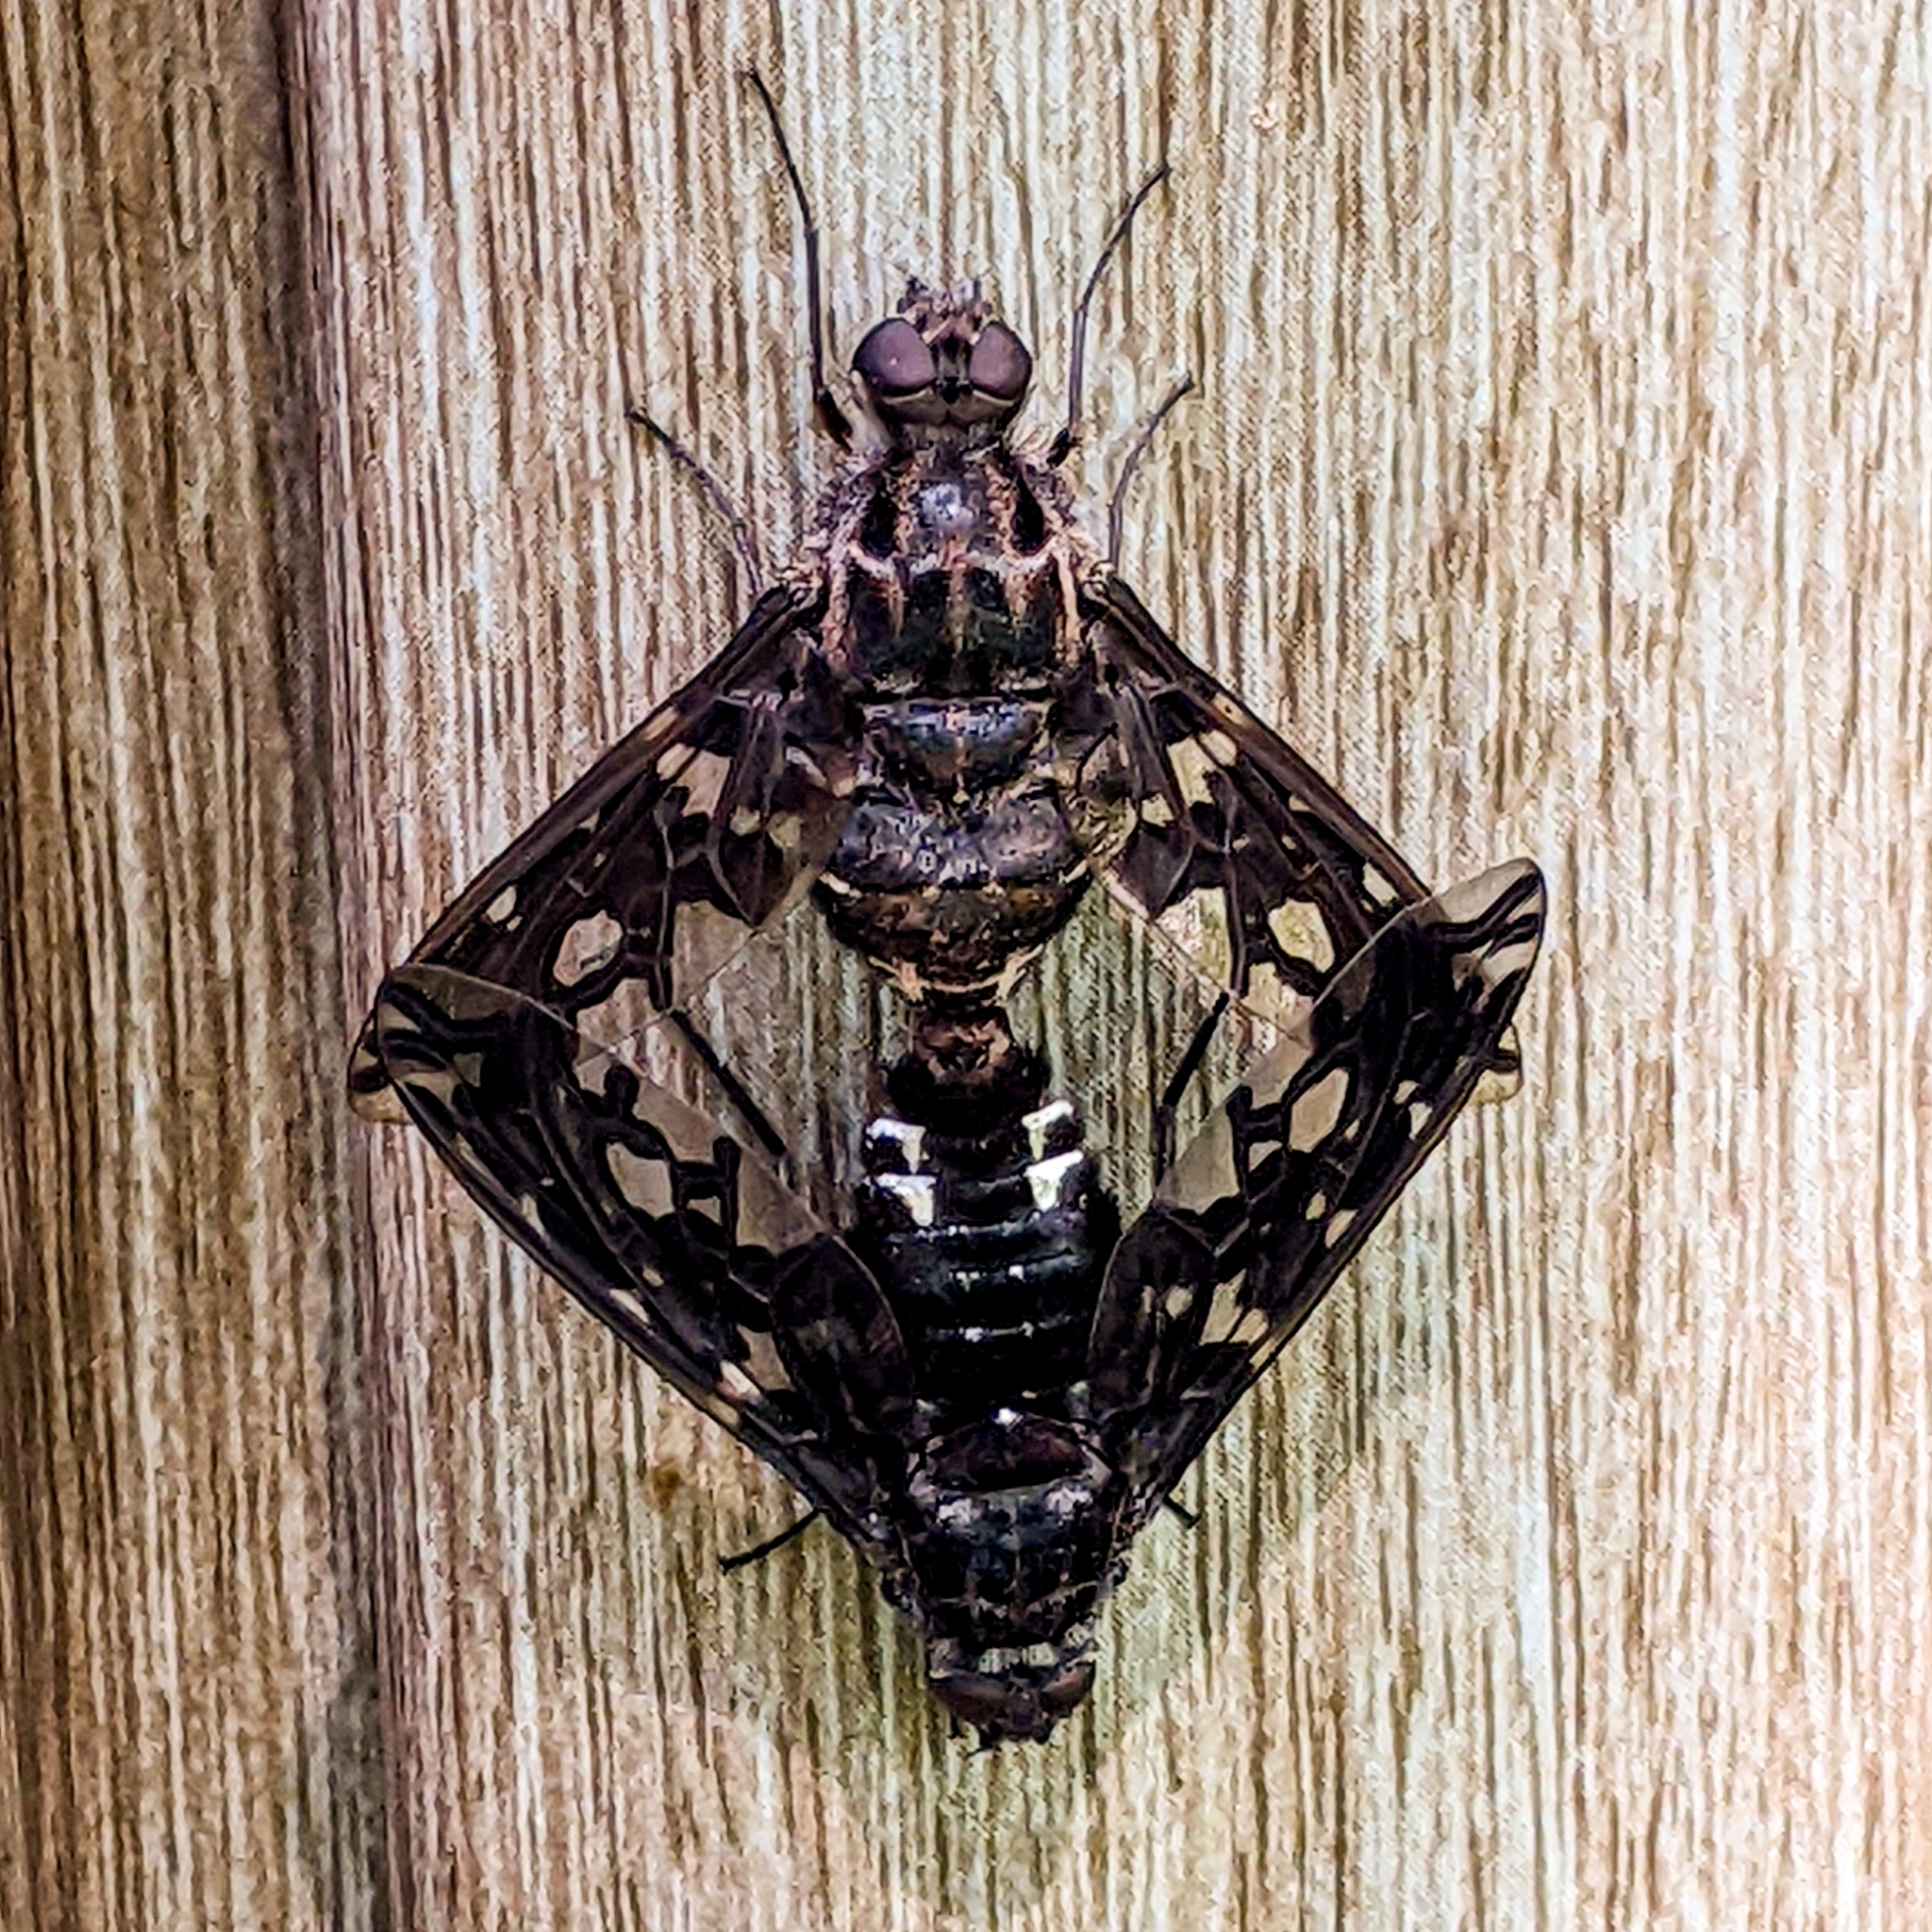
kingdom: Animalia
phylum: Arthropoda
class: Insecta
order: Diptera
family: Bombyliidae
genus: Xenox
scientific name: Xenox tigrinus
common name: Tiger bee fly
